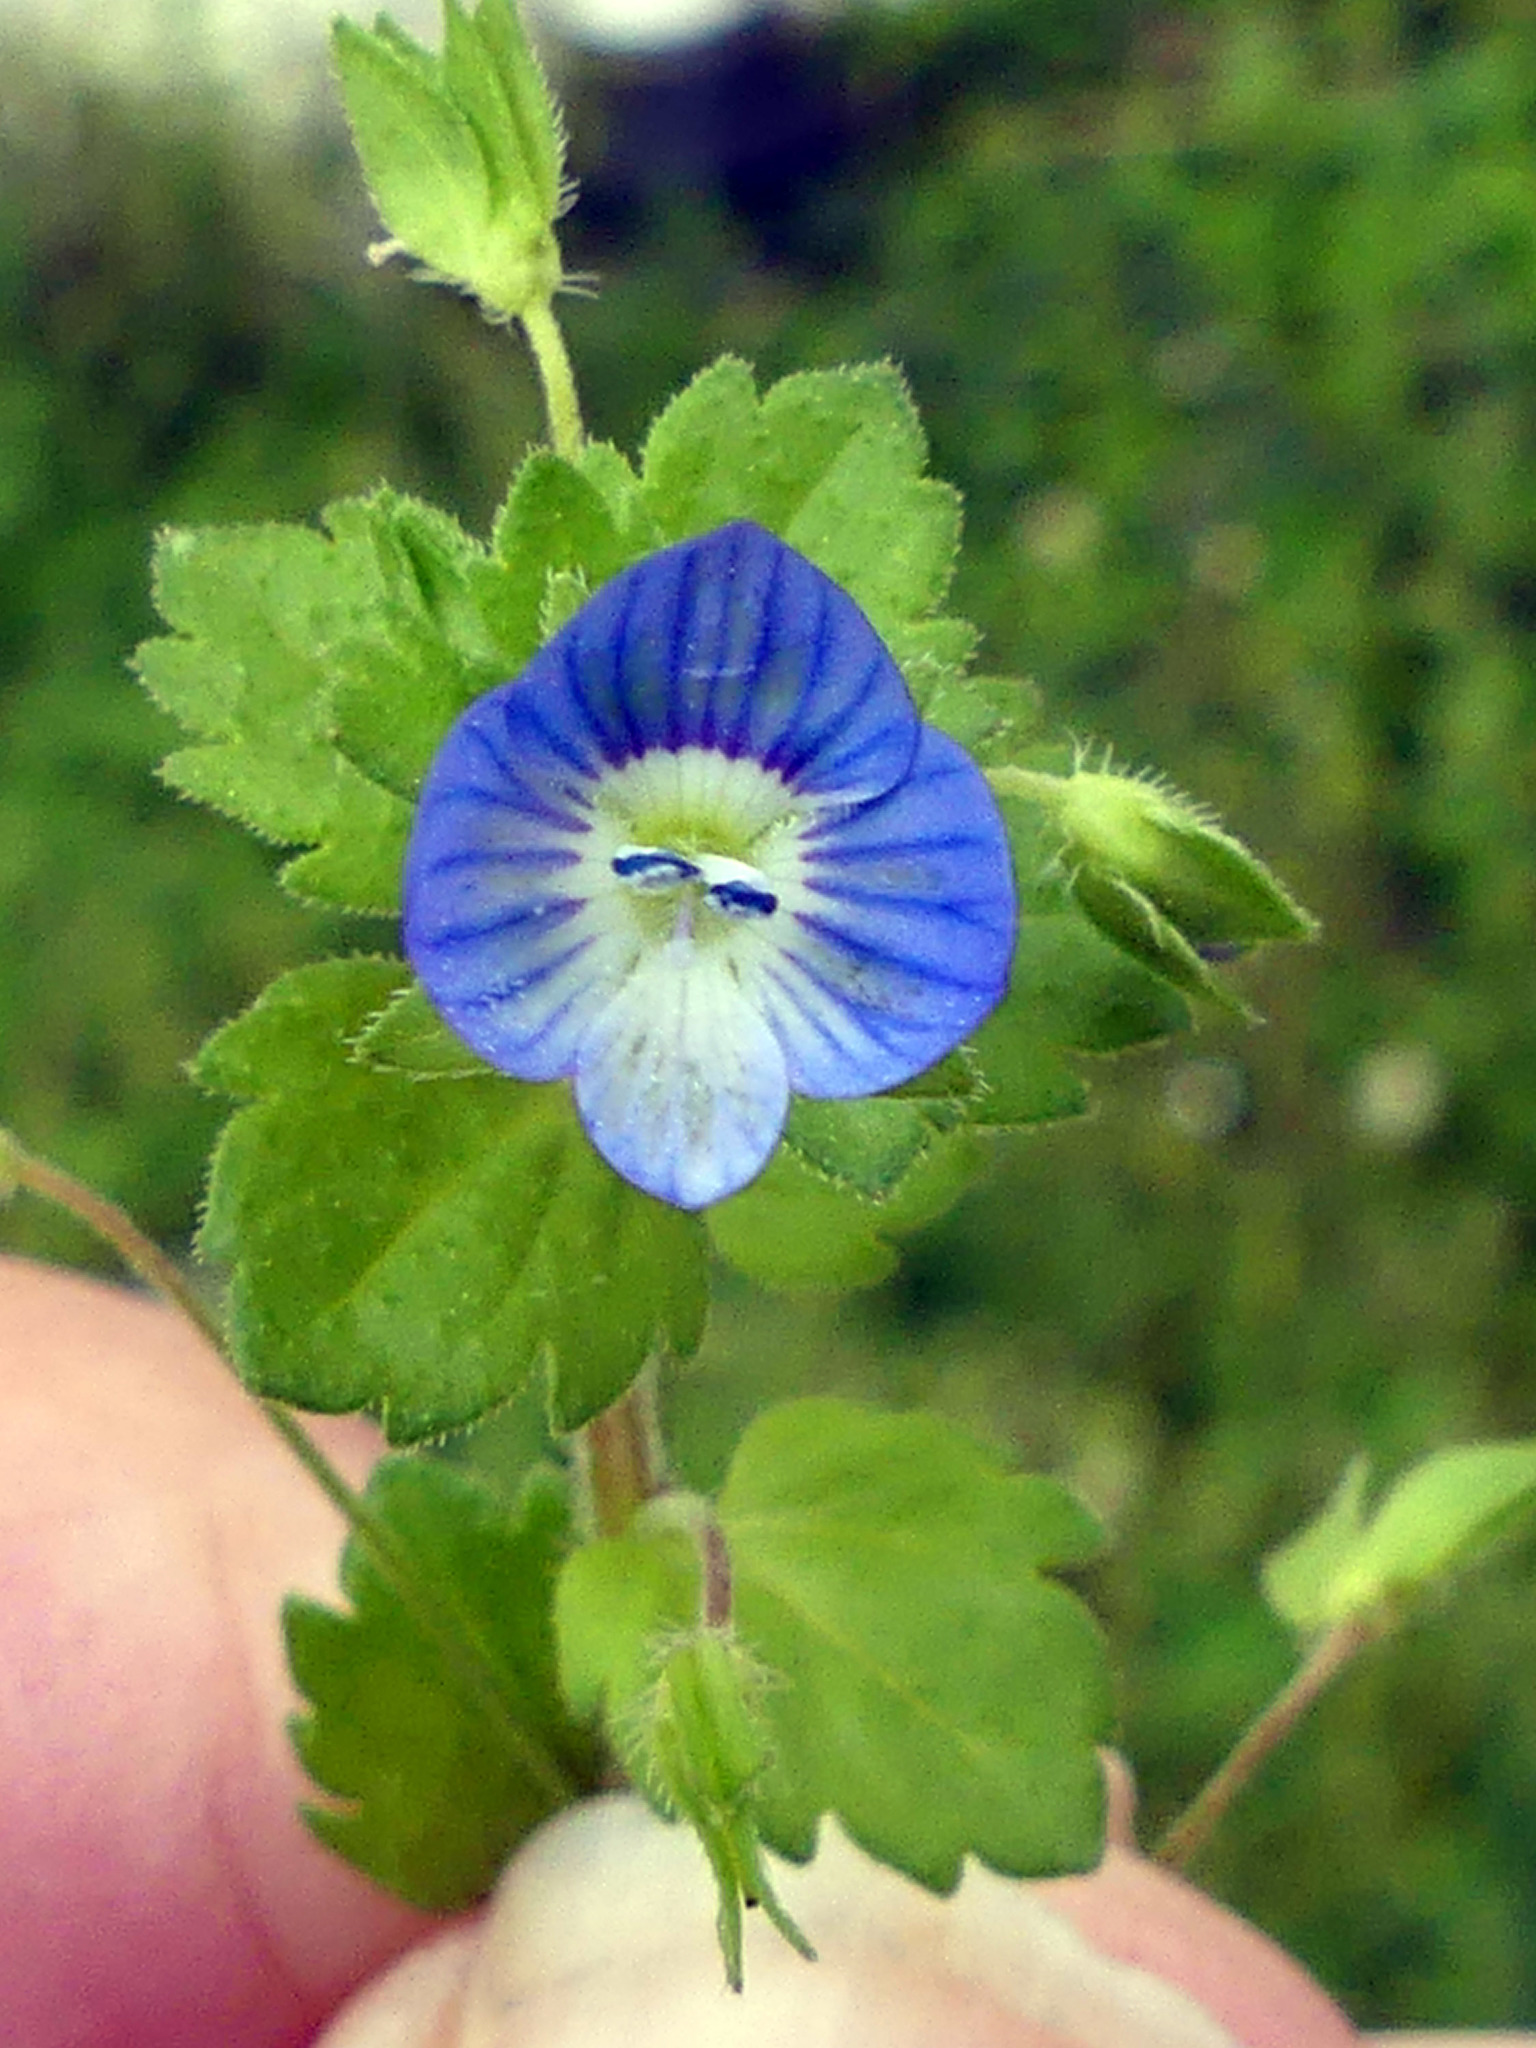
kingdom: Plantae
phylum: Tracheophyta
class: Magnoliopsida
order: Lamiales
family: Plantaginaceae
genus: Veronica
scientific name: Veronica persica
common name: Common field-speedwell
